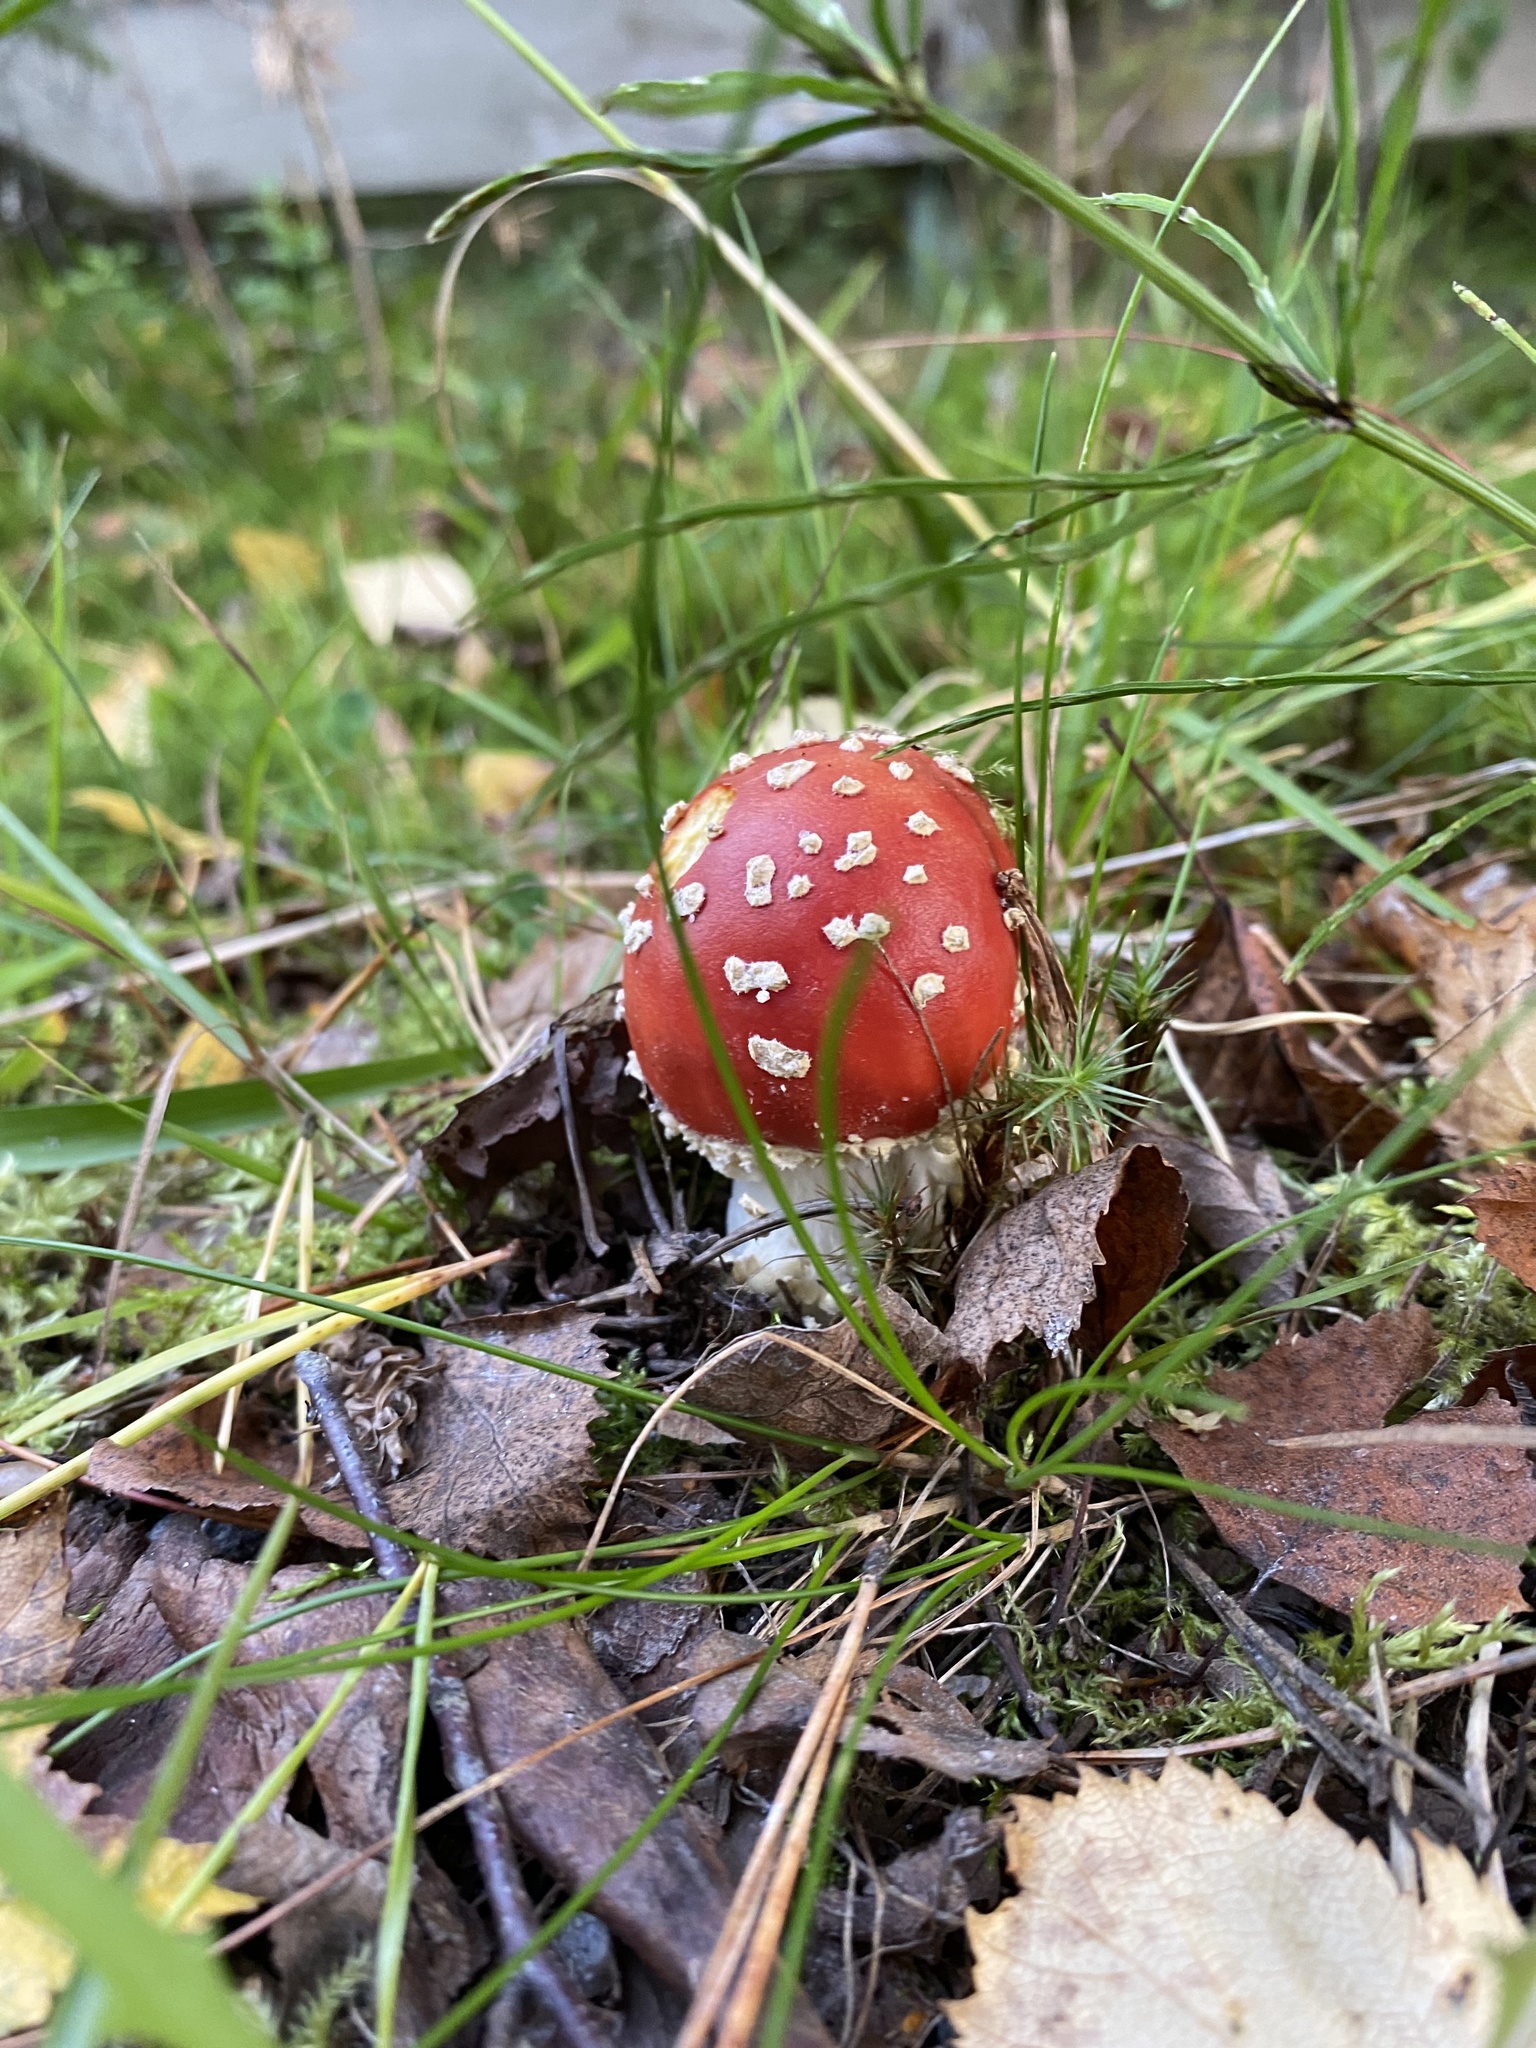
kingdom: Fungi
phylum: Basidiomycota
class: Agaricomycetes
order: Agaricales
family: Amanitaceae
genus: Amanita
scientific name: Amanita muscaria
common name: Fly agaric
